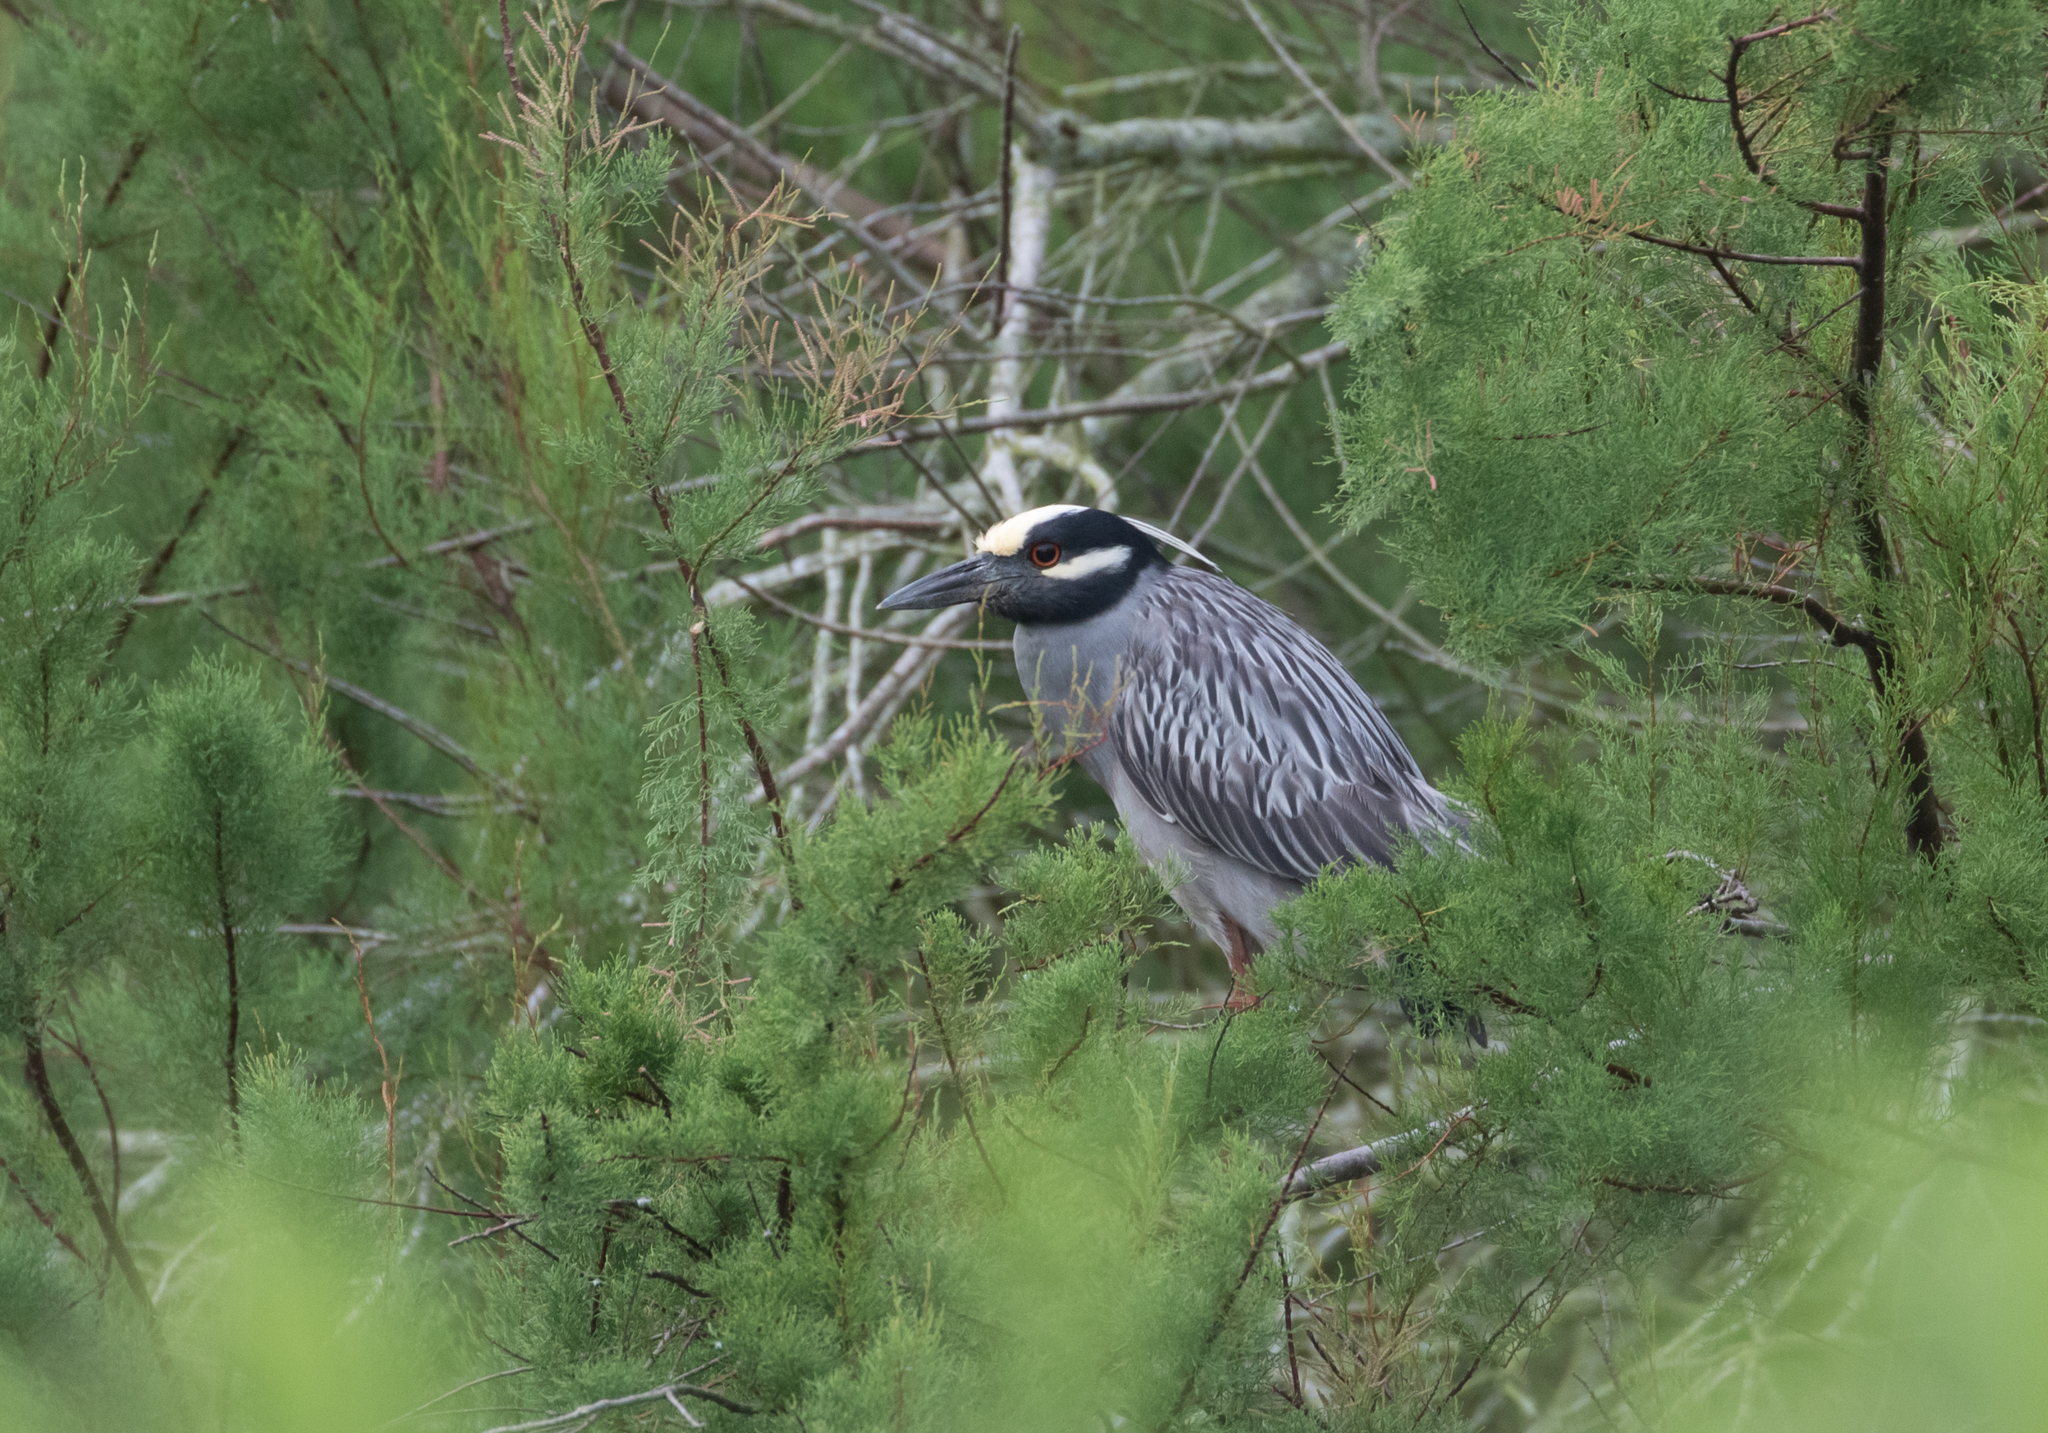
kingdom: Animalia
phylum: Chordata
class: Aves
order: Pelecaniformes
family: Ardeidae
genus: Nyctanassa
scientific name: Nyctanassa violacea
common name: Yellow-crowned night heron
